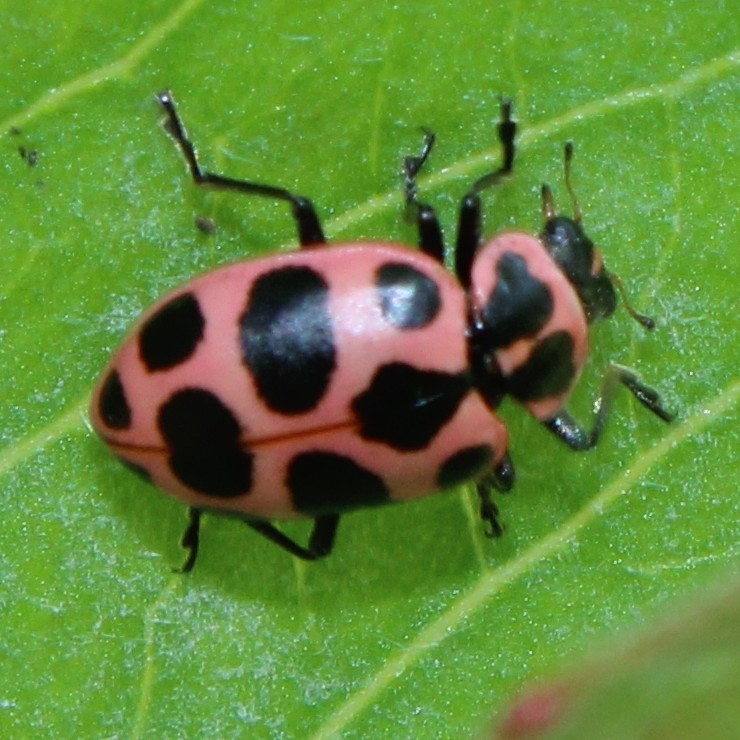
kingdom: Animalia
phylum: Arthropoda
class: Insecta
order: Coleoptera
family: Coccinellidae
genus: Coleomegilla
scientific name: Coleomegilla maculata
